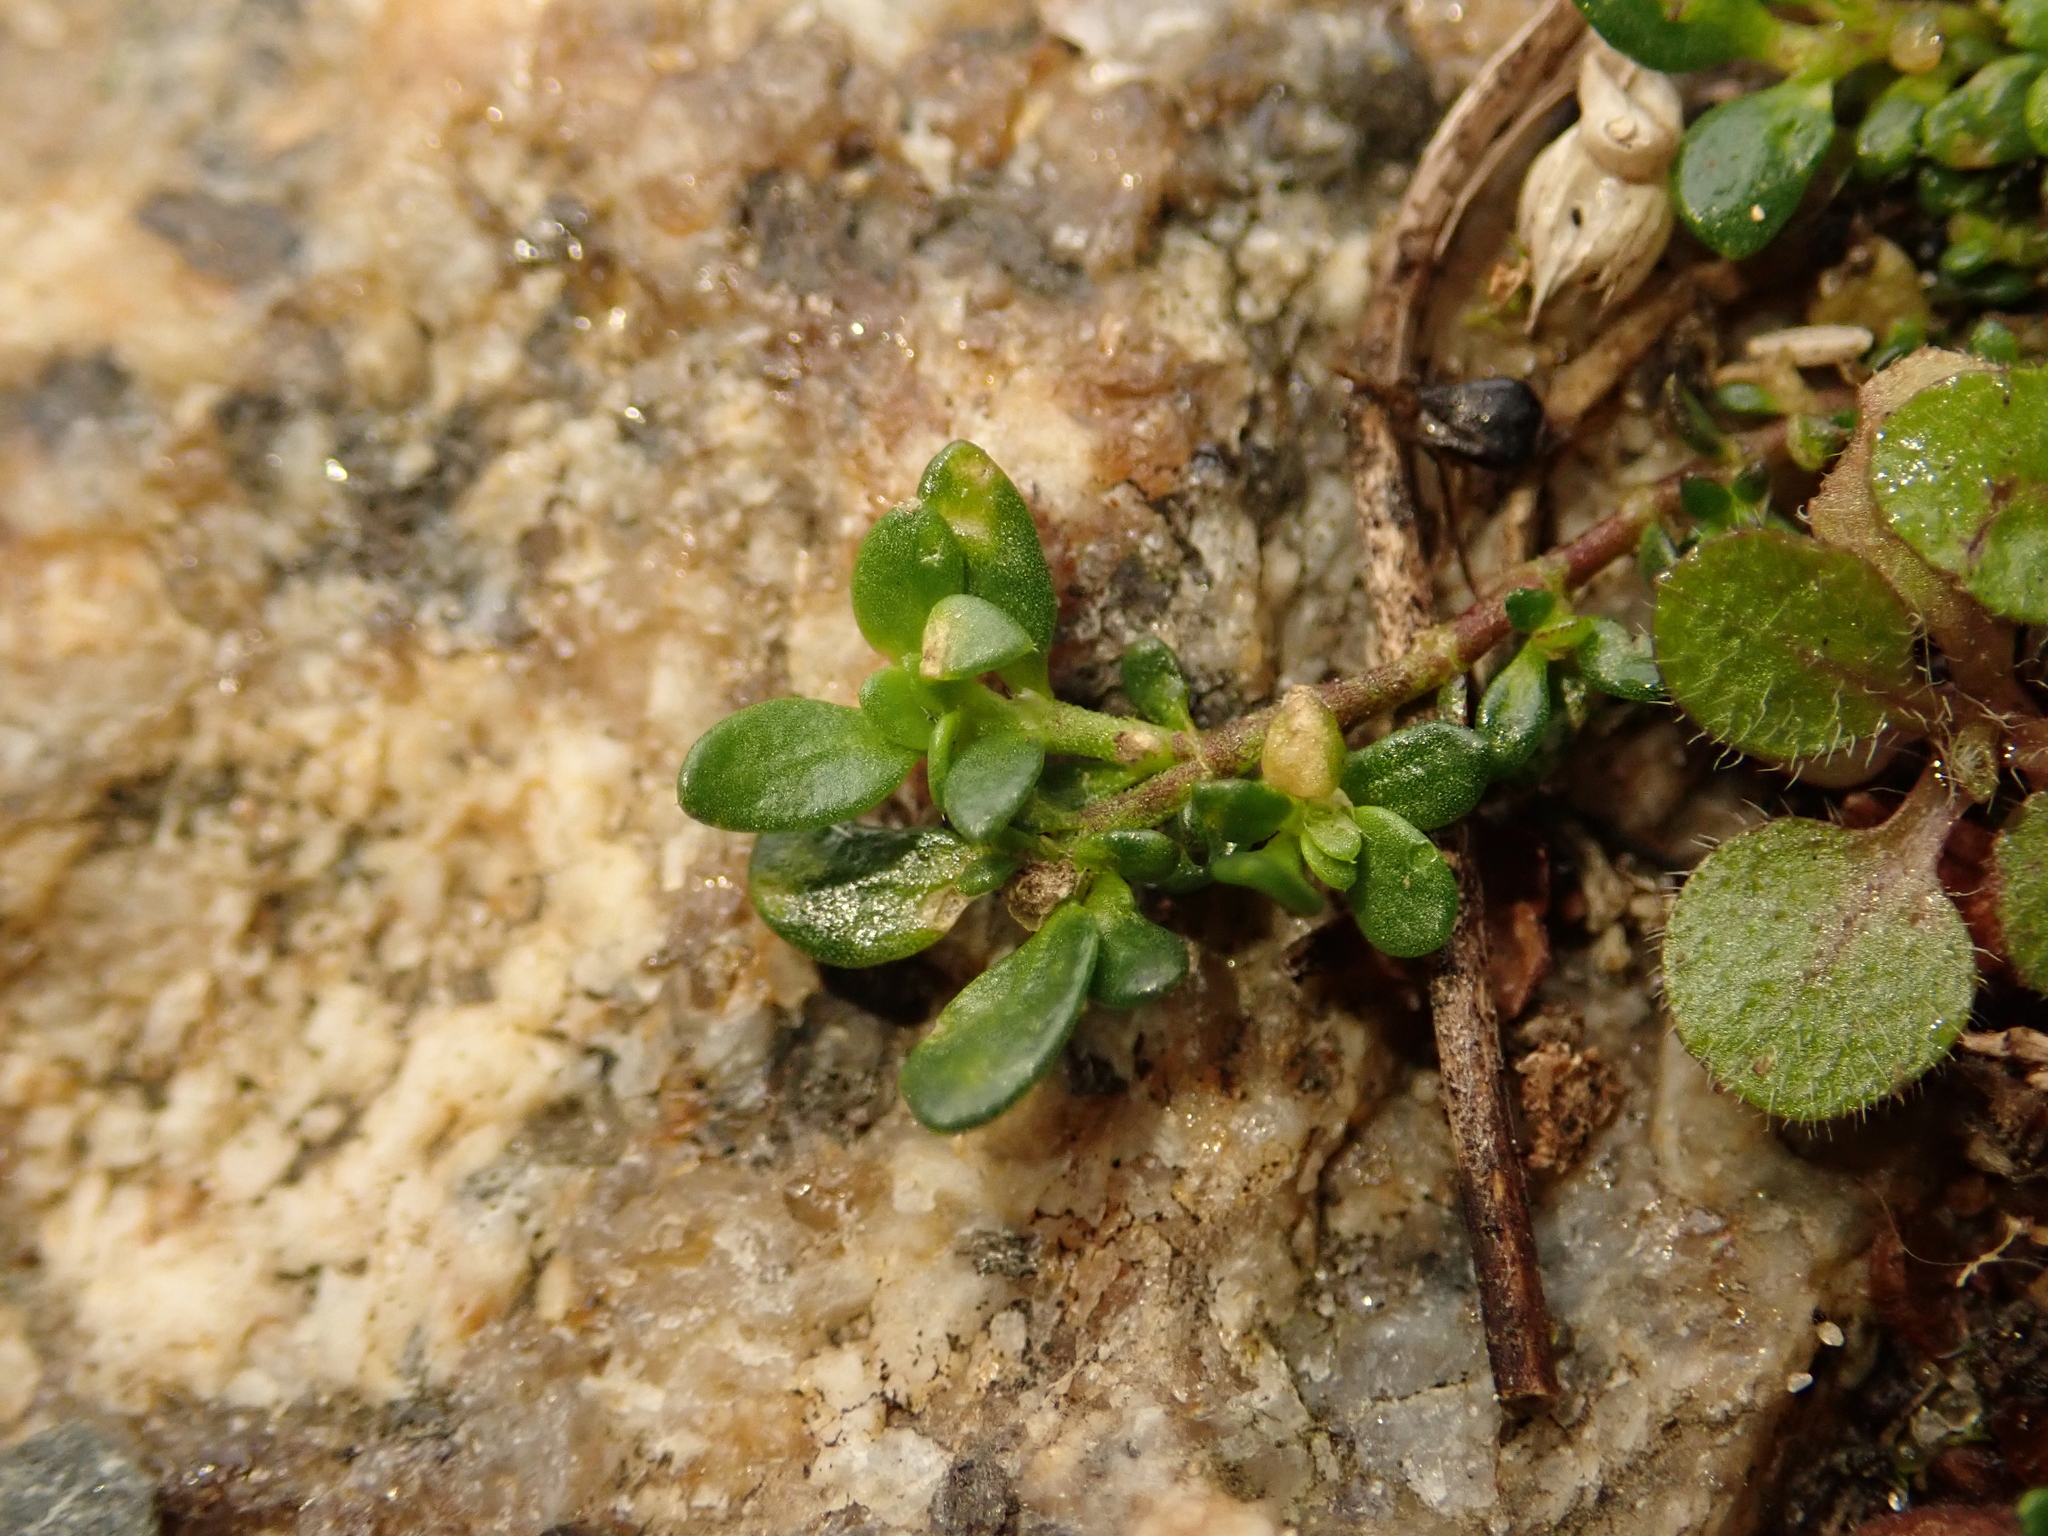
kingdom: Plantae
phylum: Tracheophyta
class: Magnoliopsida
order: Caryophyllales
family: Caryophyllaceae
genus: Herniaria
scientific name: Herniaria glabra
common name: Smooth rupturewort
